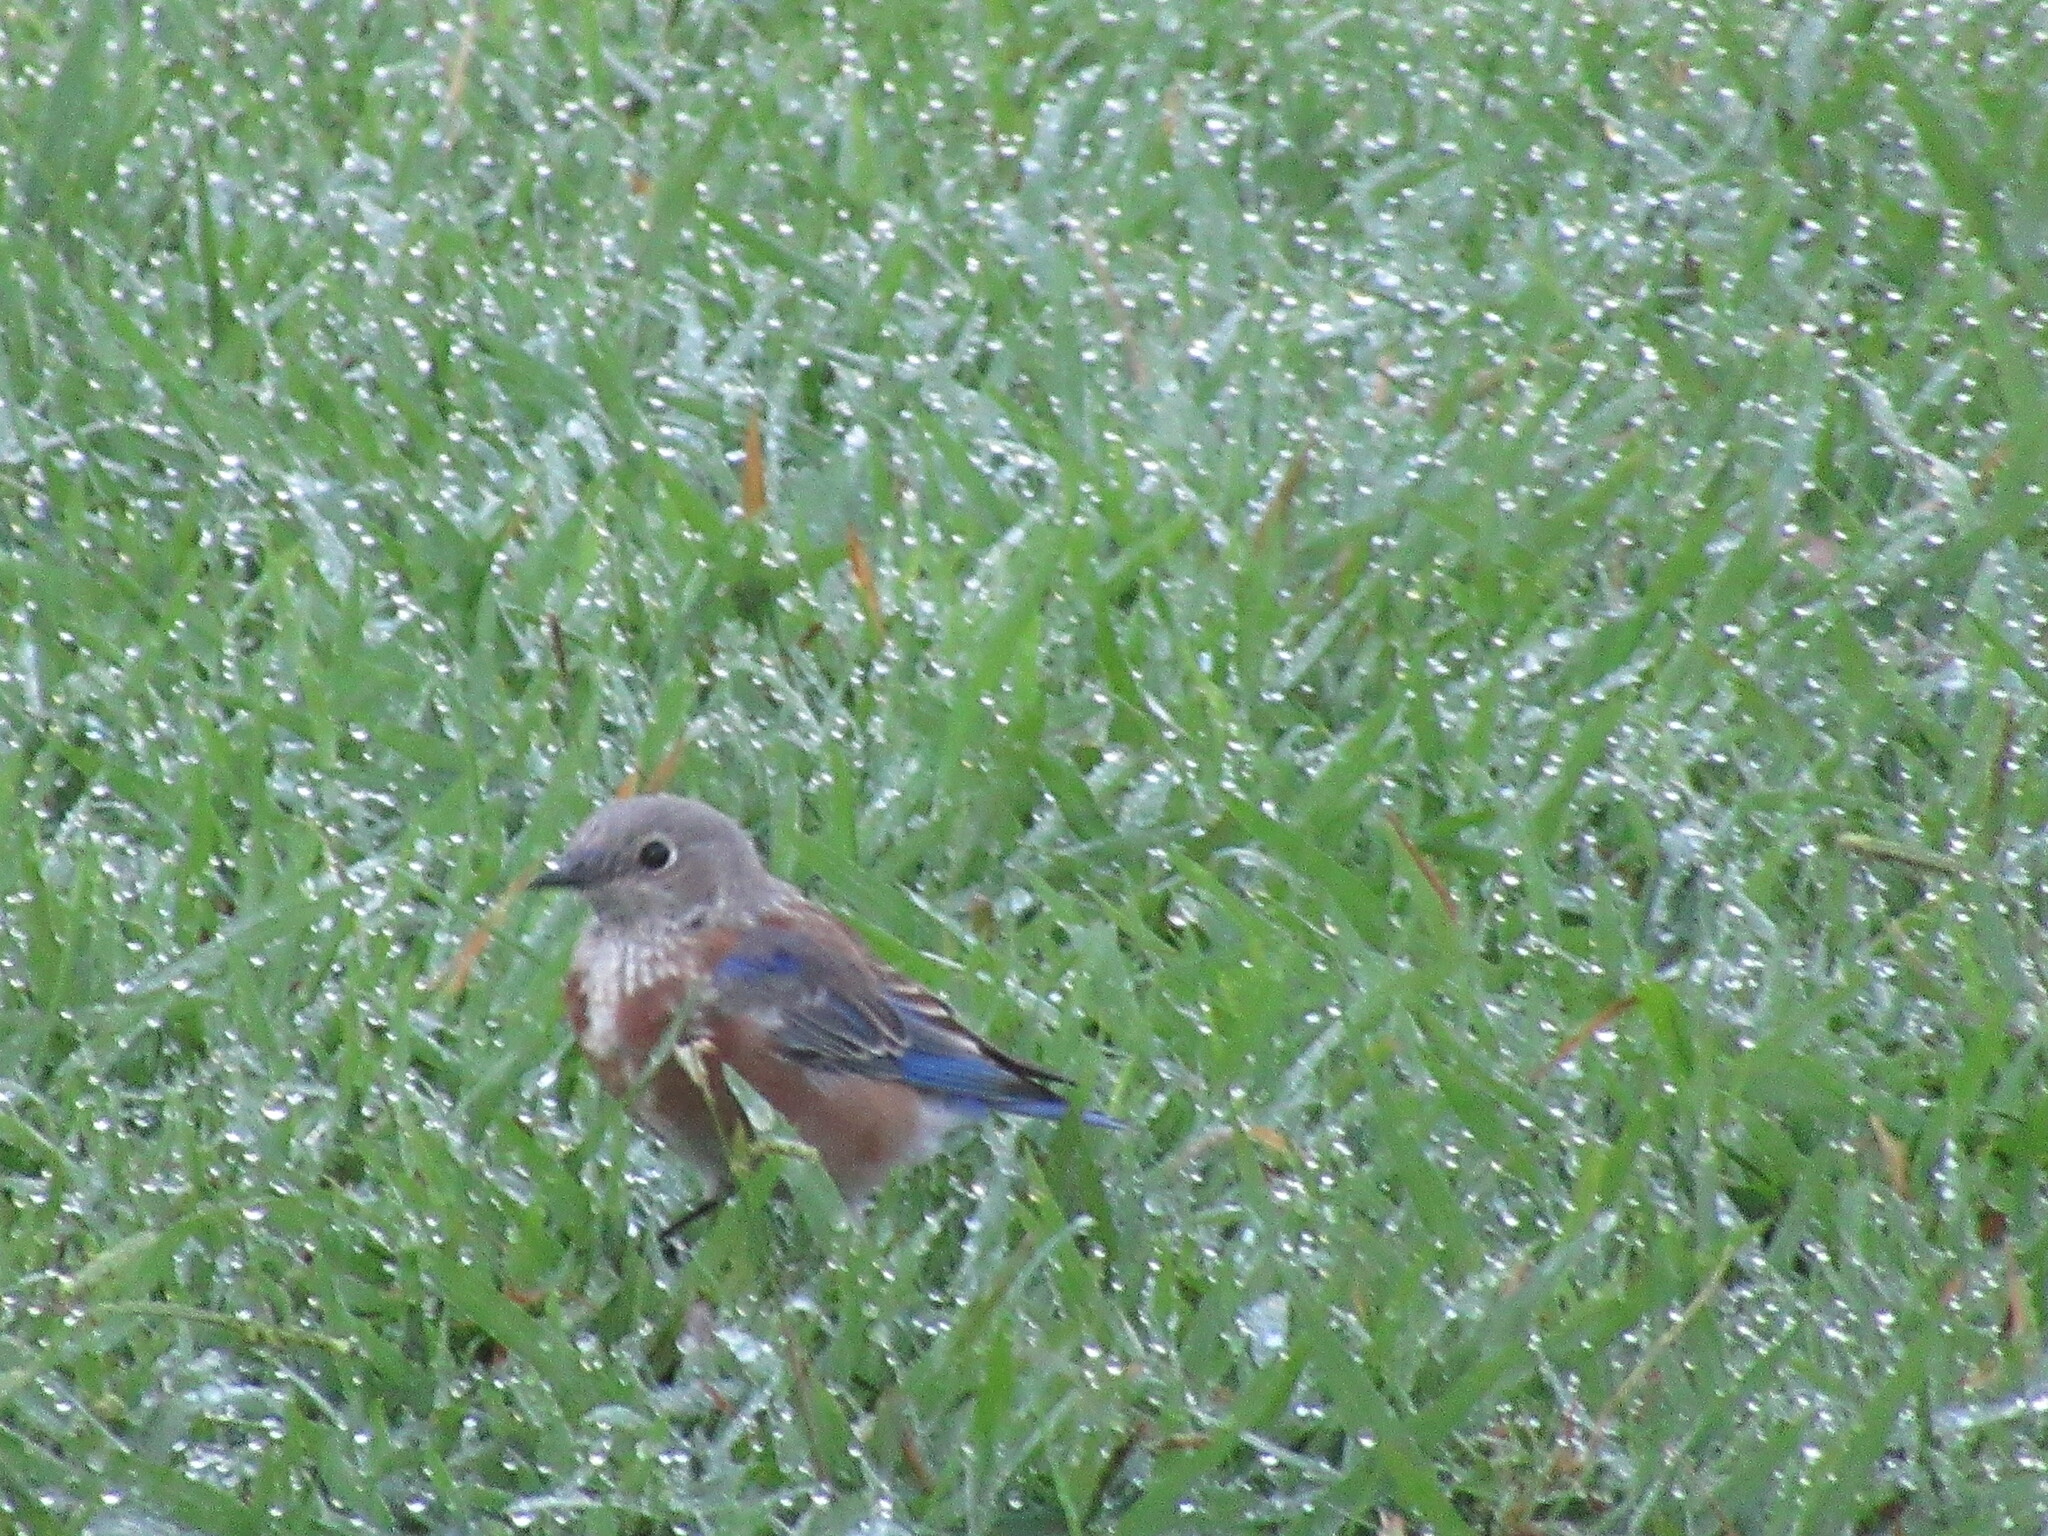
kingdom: Animalia
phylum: Chordata
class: Aves
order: Passeriformes
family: Turdidae
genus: Sialia
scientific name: Sialia mexicana
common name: Western bluebird
